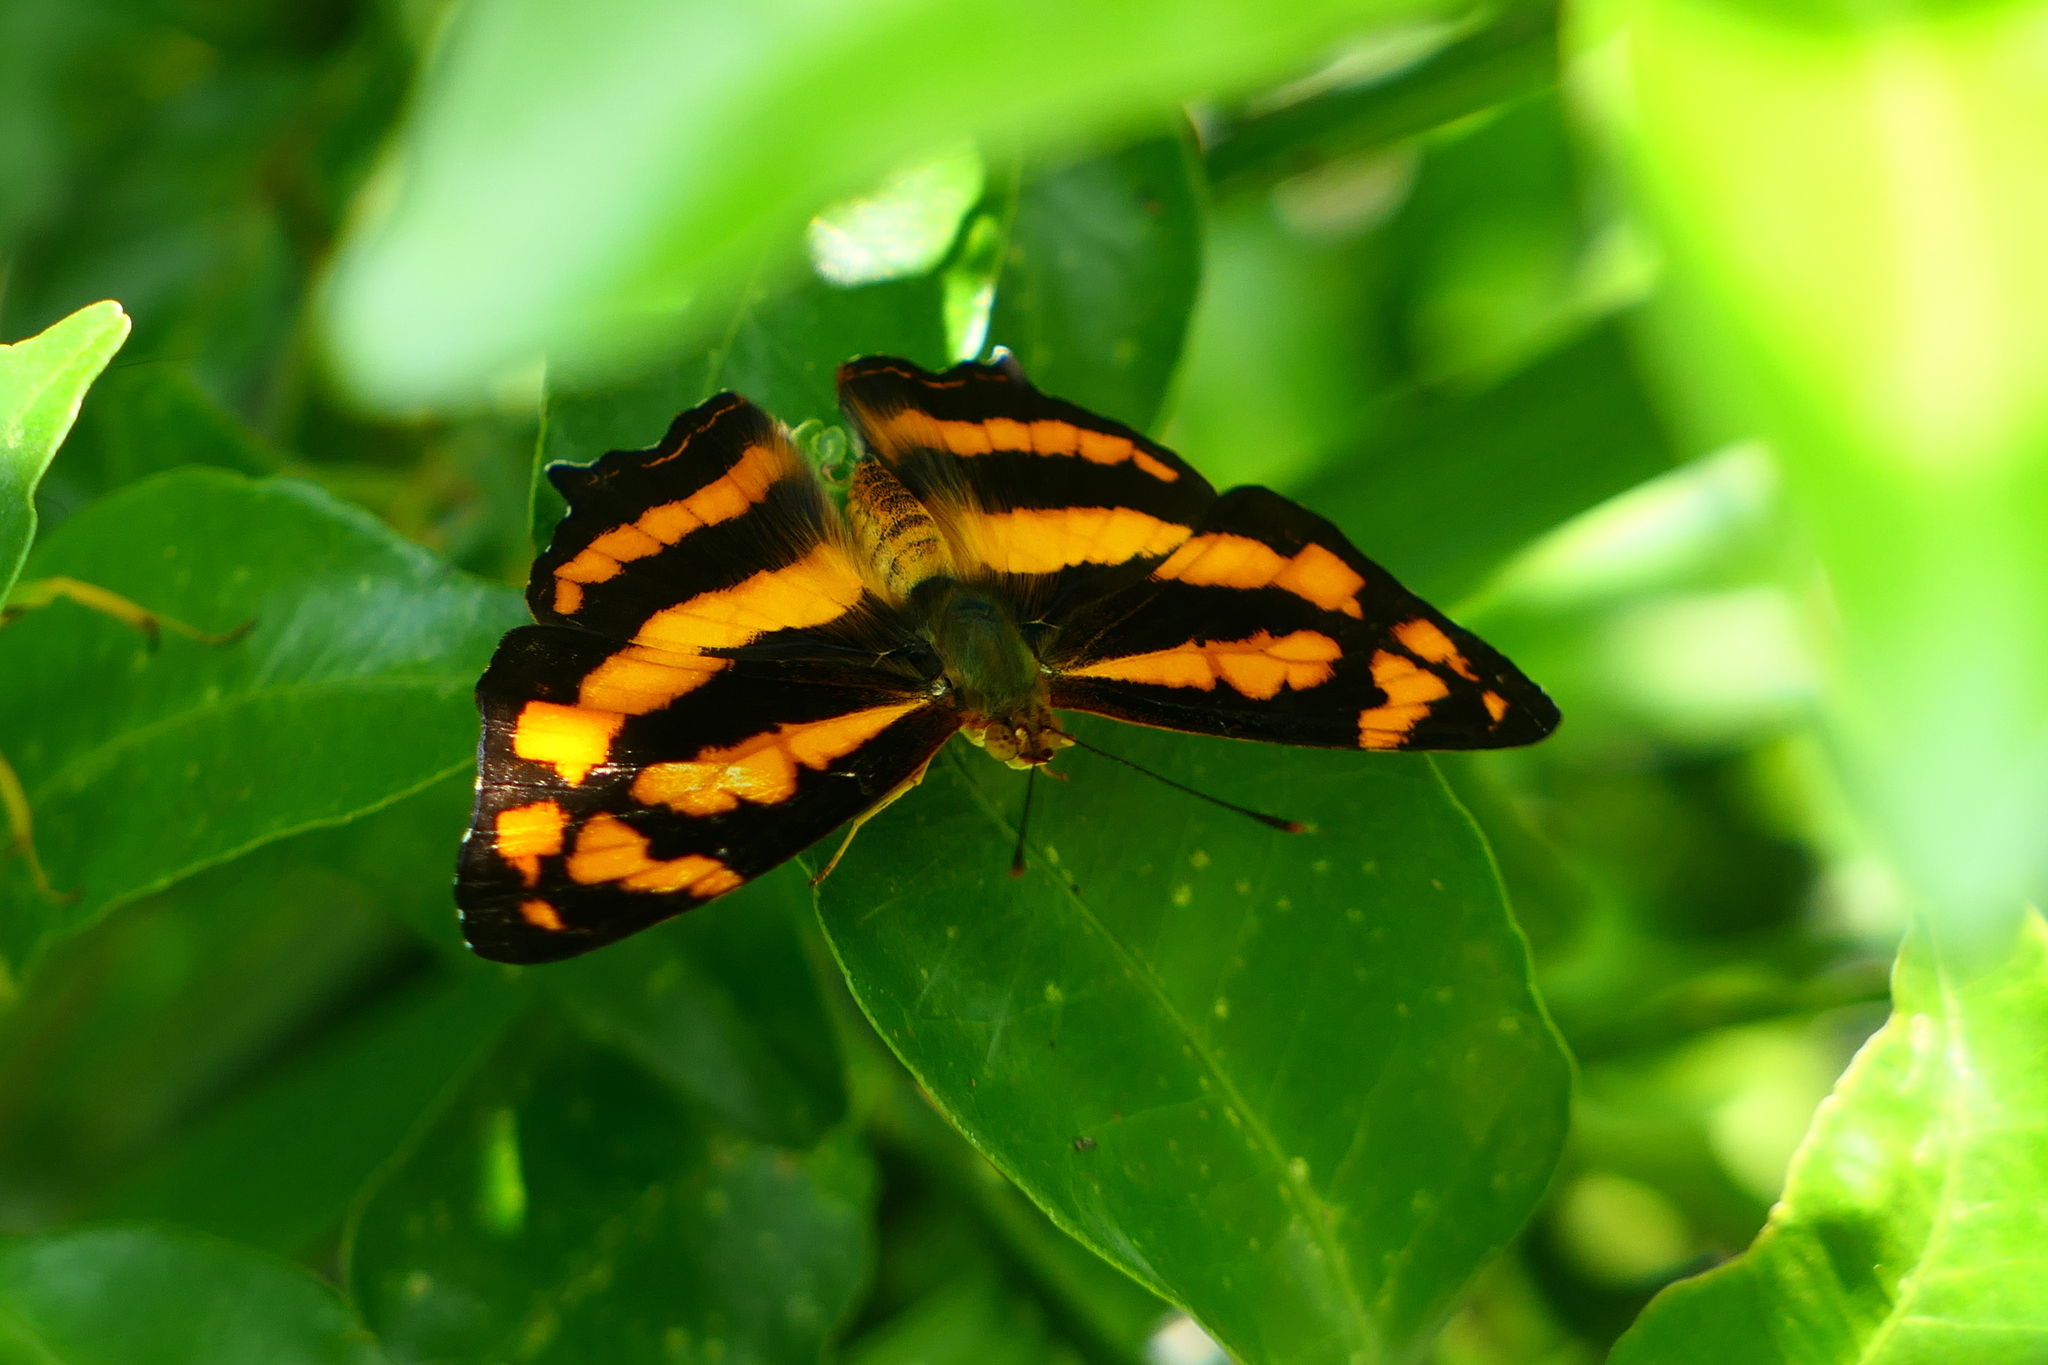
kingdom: Animalia
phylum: Arthropoda
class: Insecta
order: Lepidoptera
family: Nymphalidae
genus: Symbrenthia
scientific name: Symbrenthia hypselis
